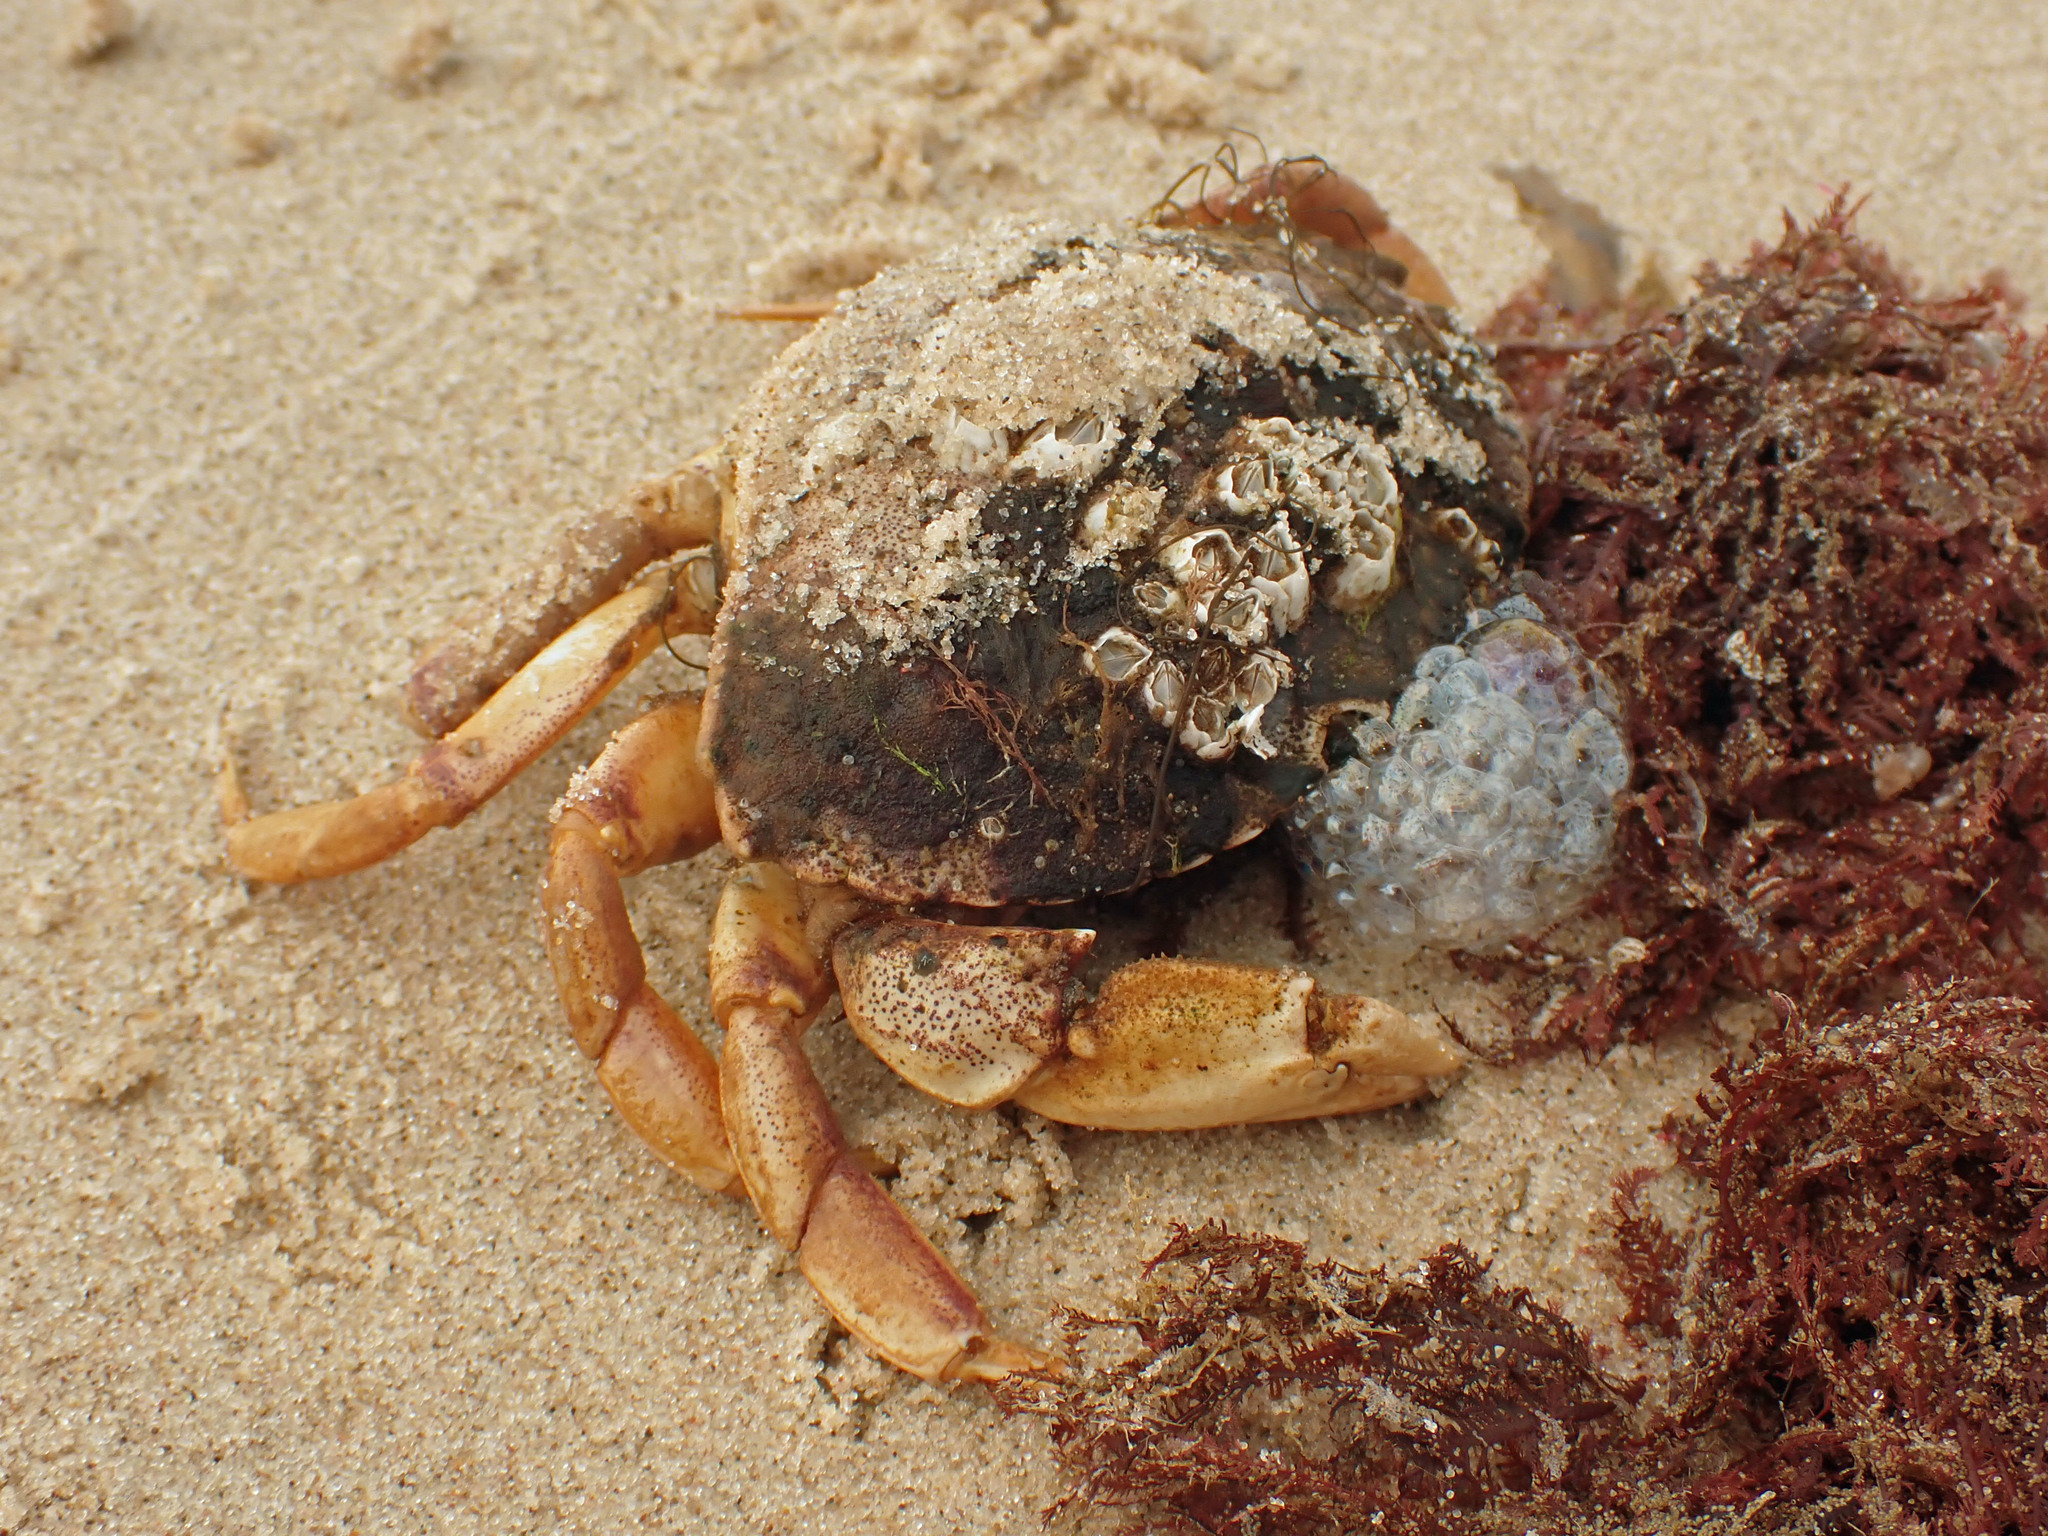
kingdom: Animalia
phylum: Arthropoda
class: Malacostraca
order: Decapoda
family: Cancridae
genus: Cancer
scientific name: Cancer irroratus
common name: Atlantic rock crab
